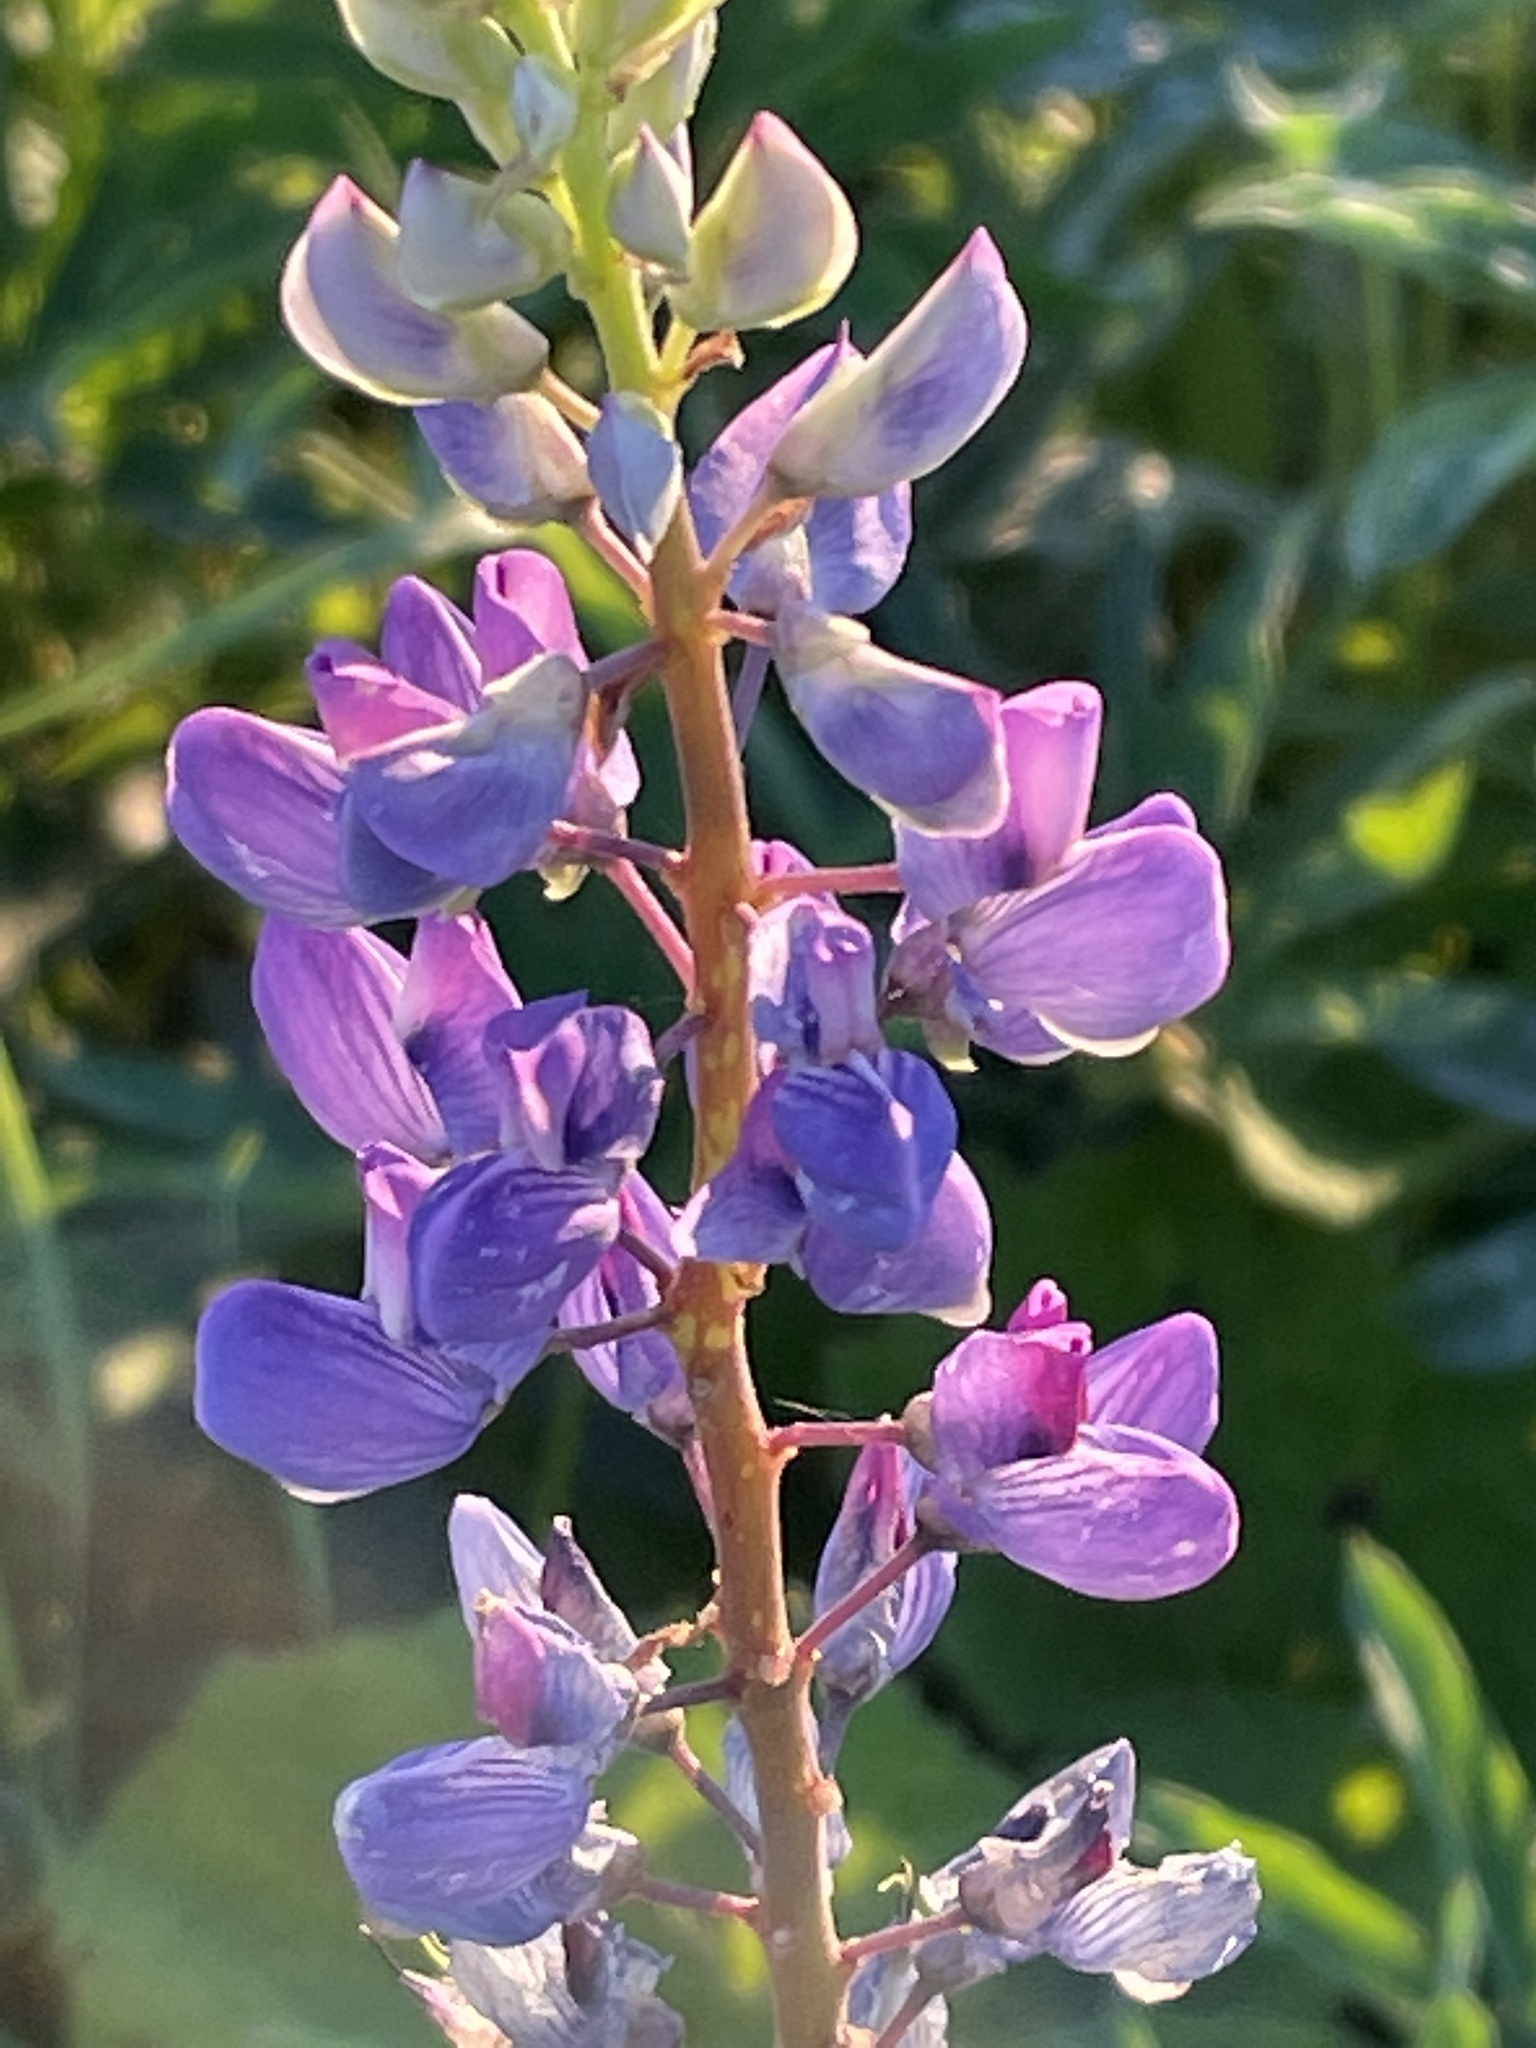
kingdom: Plantae
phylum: Tracheophyta
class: Magnoliopsida
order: Fabales
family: Fabaceae
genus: Lupinus
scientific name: Lupinus polyphyllus
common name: Garden lupin
